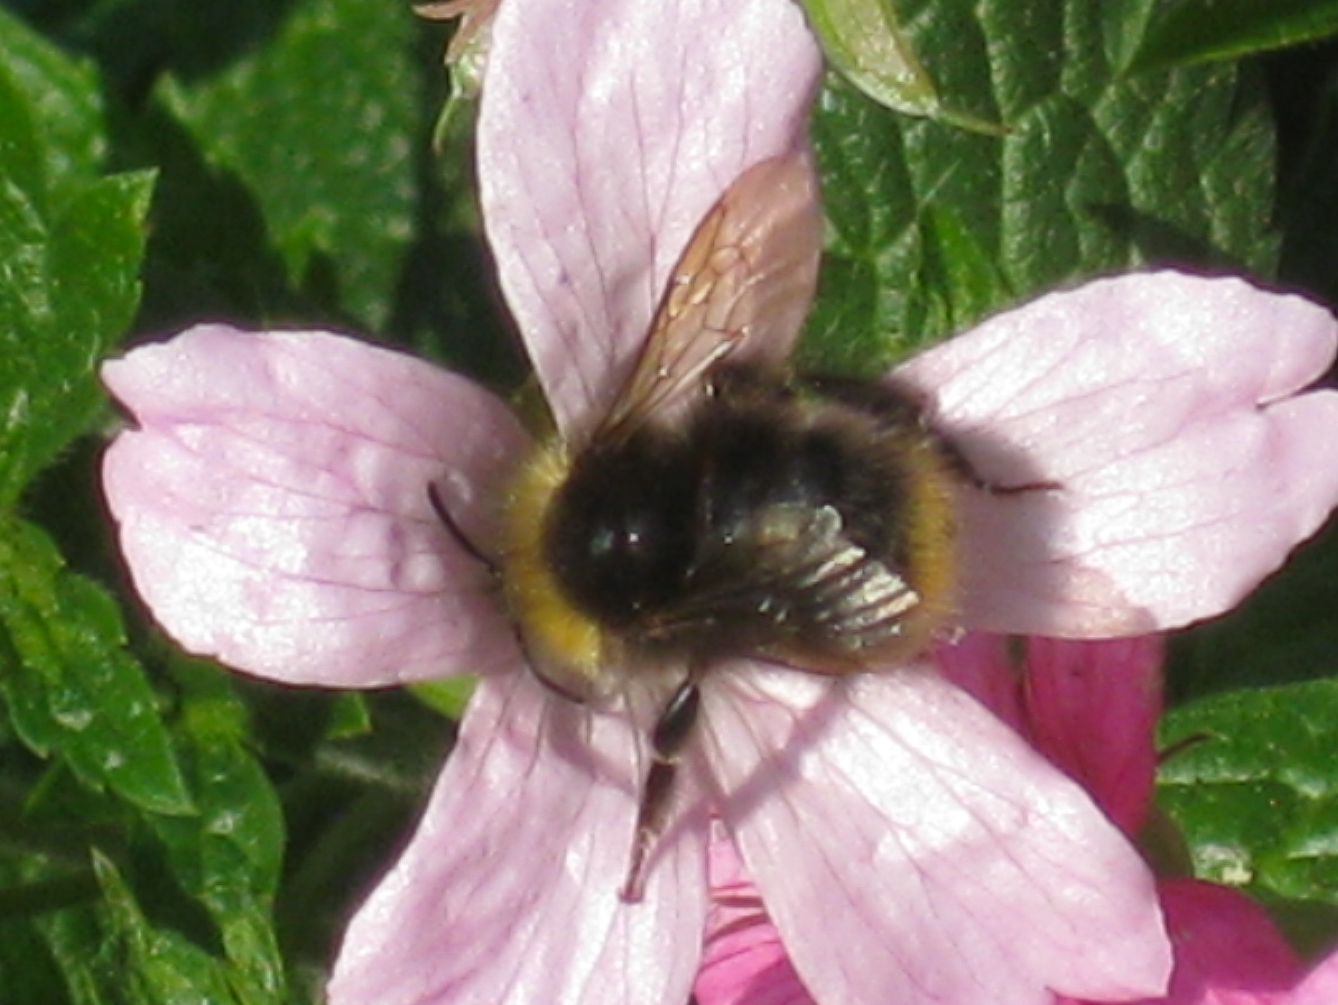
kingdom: Animalia
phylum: Arthropoda
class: Insecta
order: Hymenoptera
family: Apidae
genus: Bombus
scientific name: Bombus pratorum
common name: Early humble-bee
